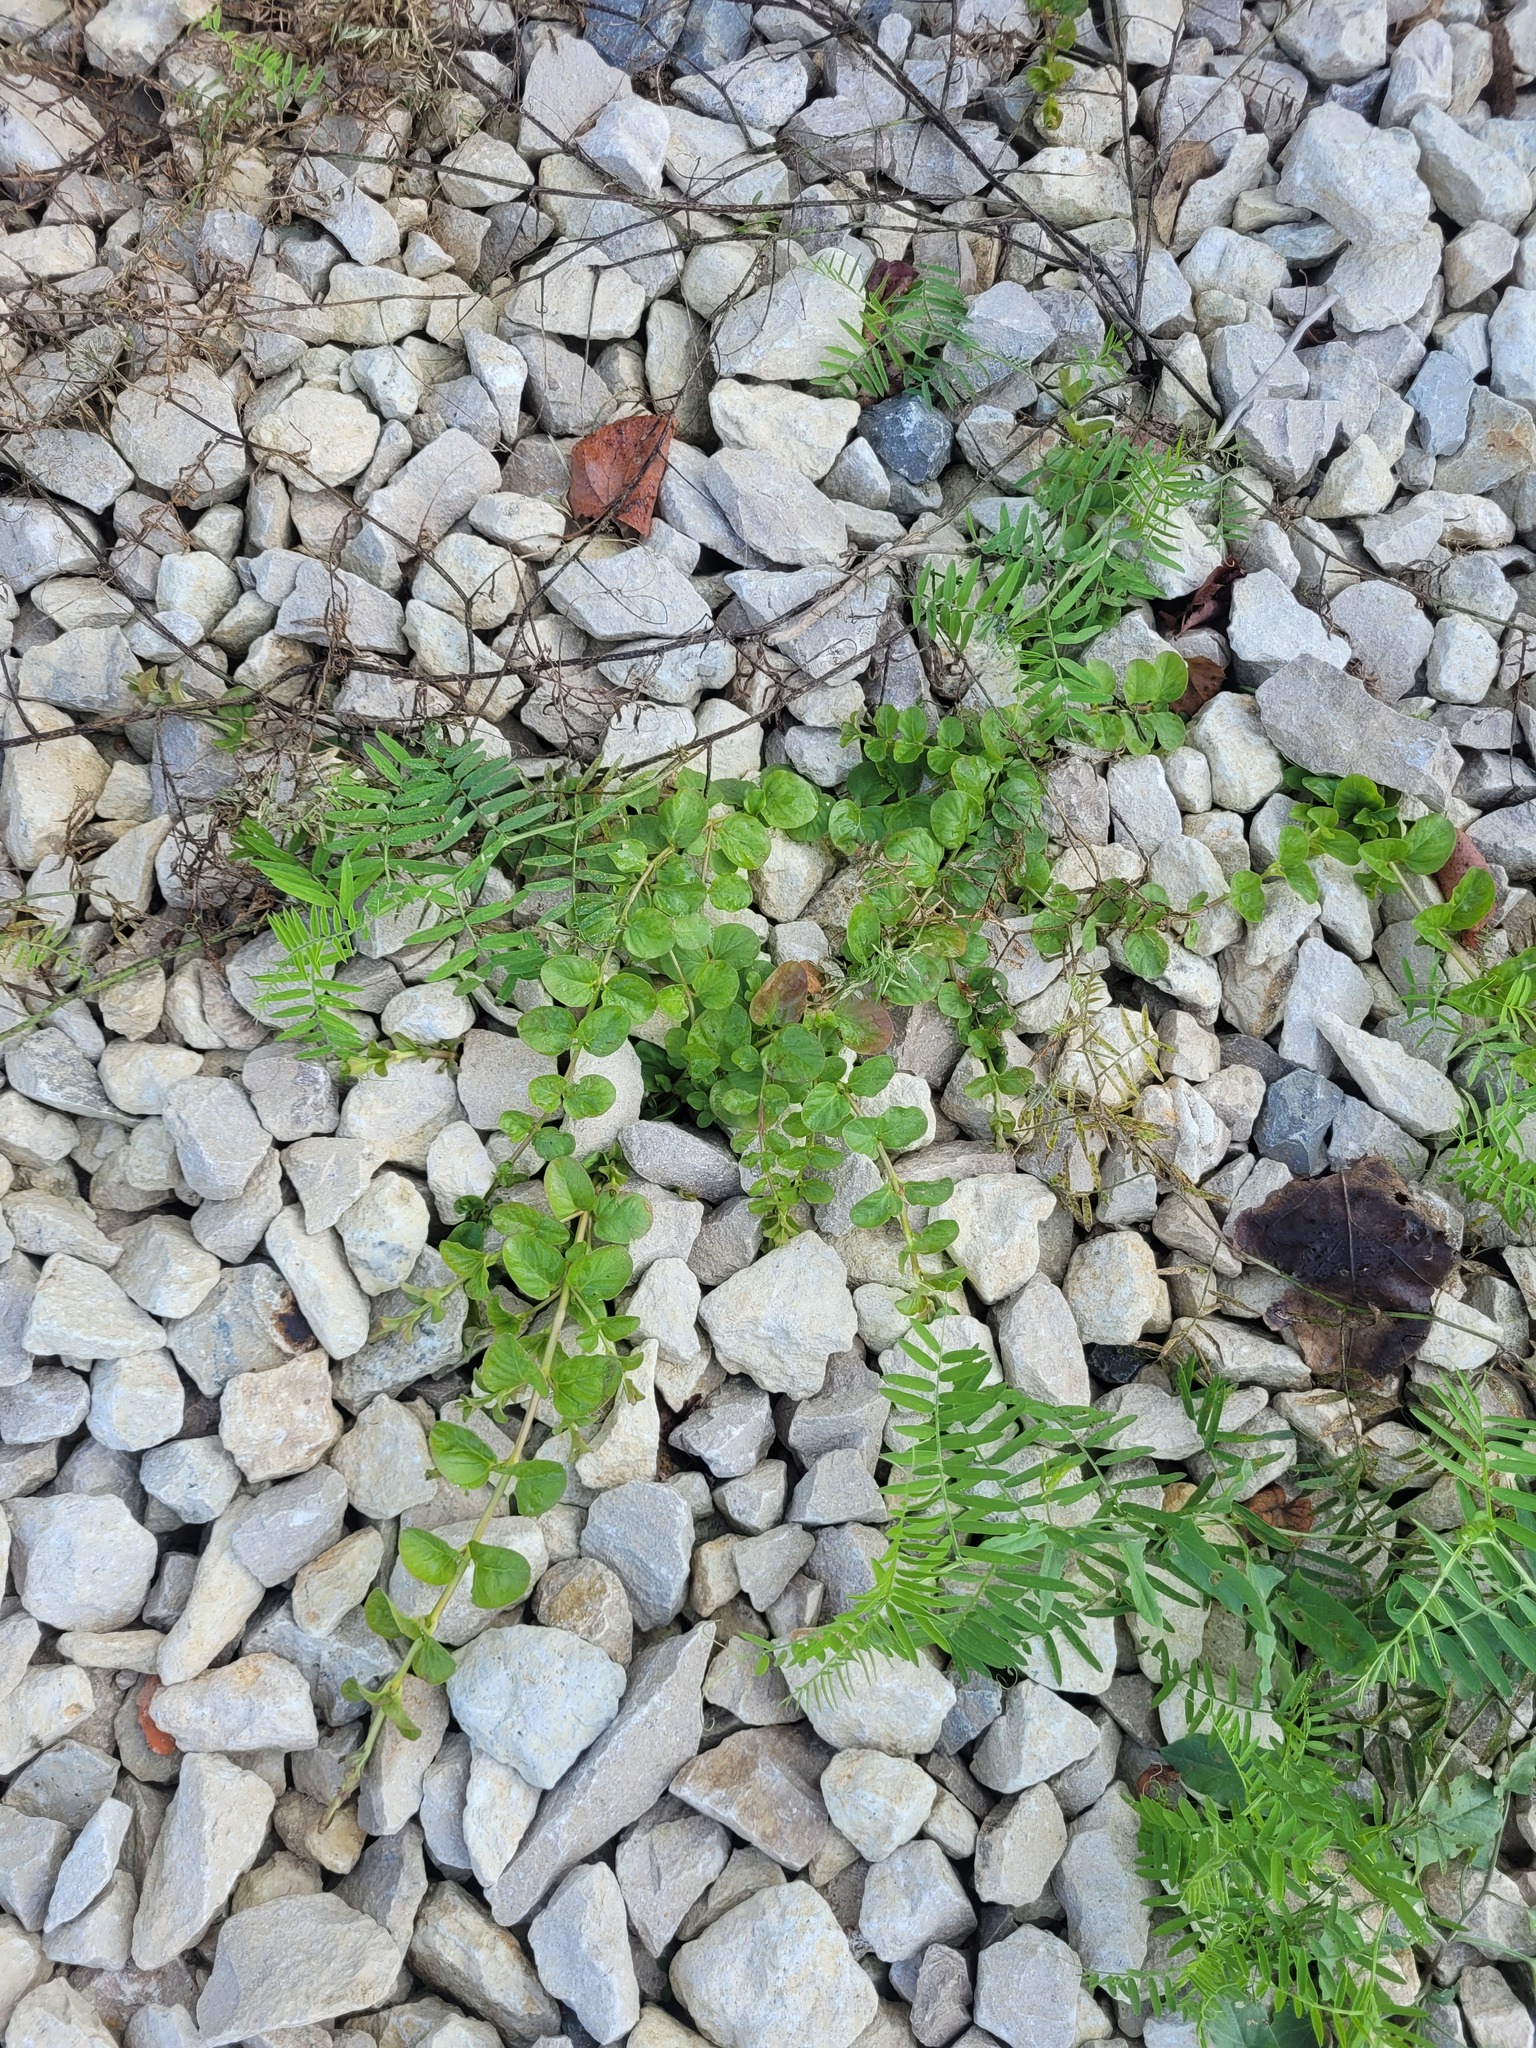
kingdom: Plantae
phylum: Tracheophyta
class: Magnoliopsida
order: Ericales
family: Primulaceae
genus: Lysimachia
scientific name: Lysimachia nummularia
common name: Moneywort
